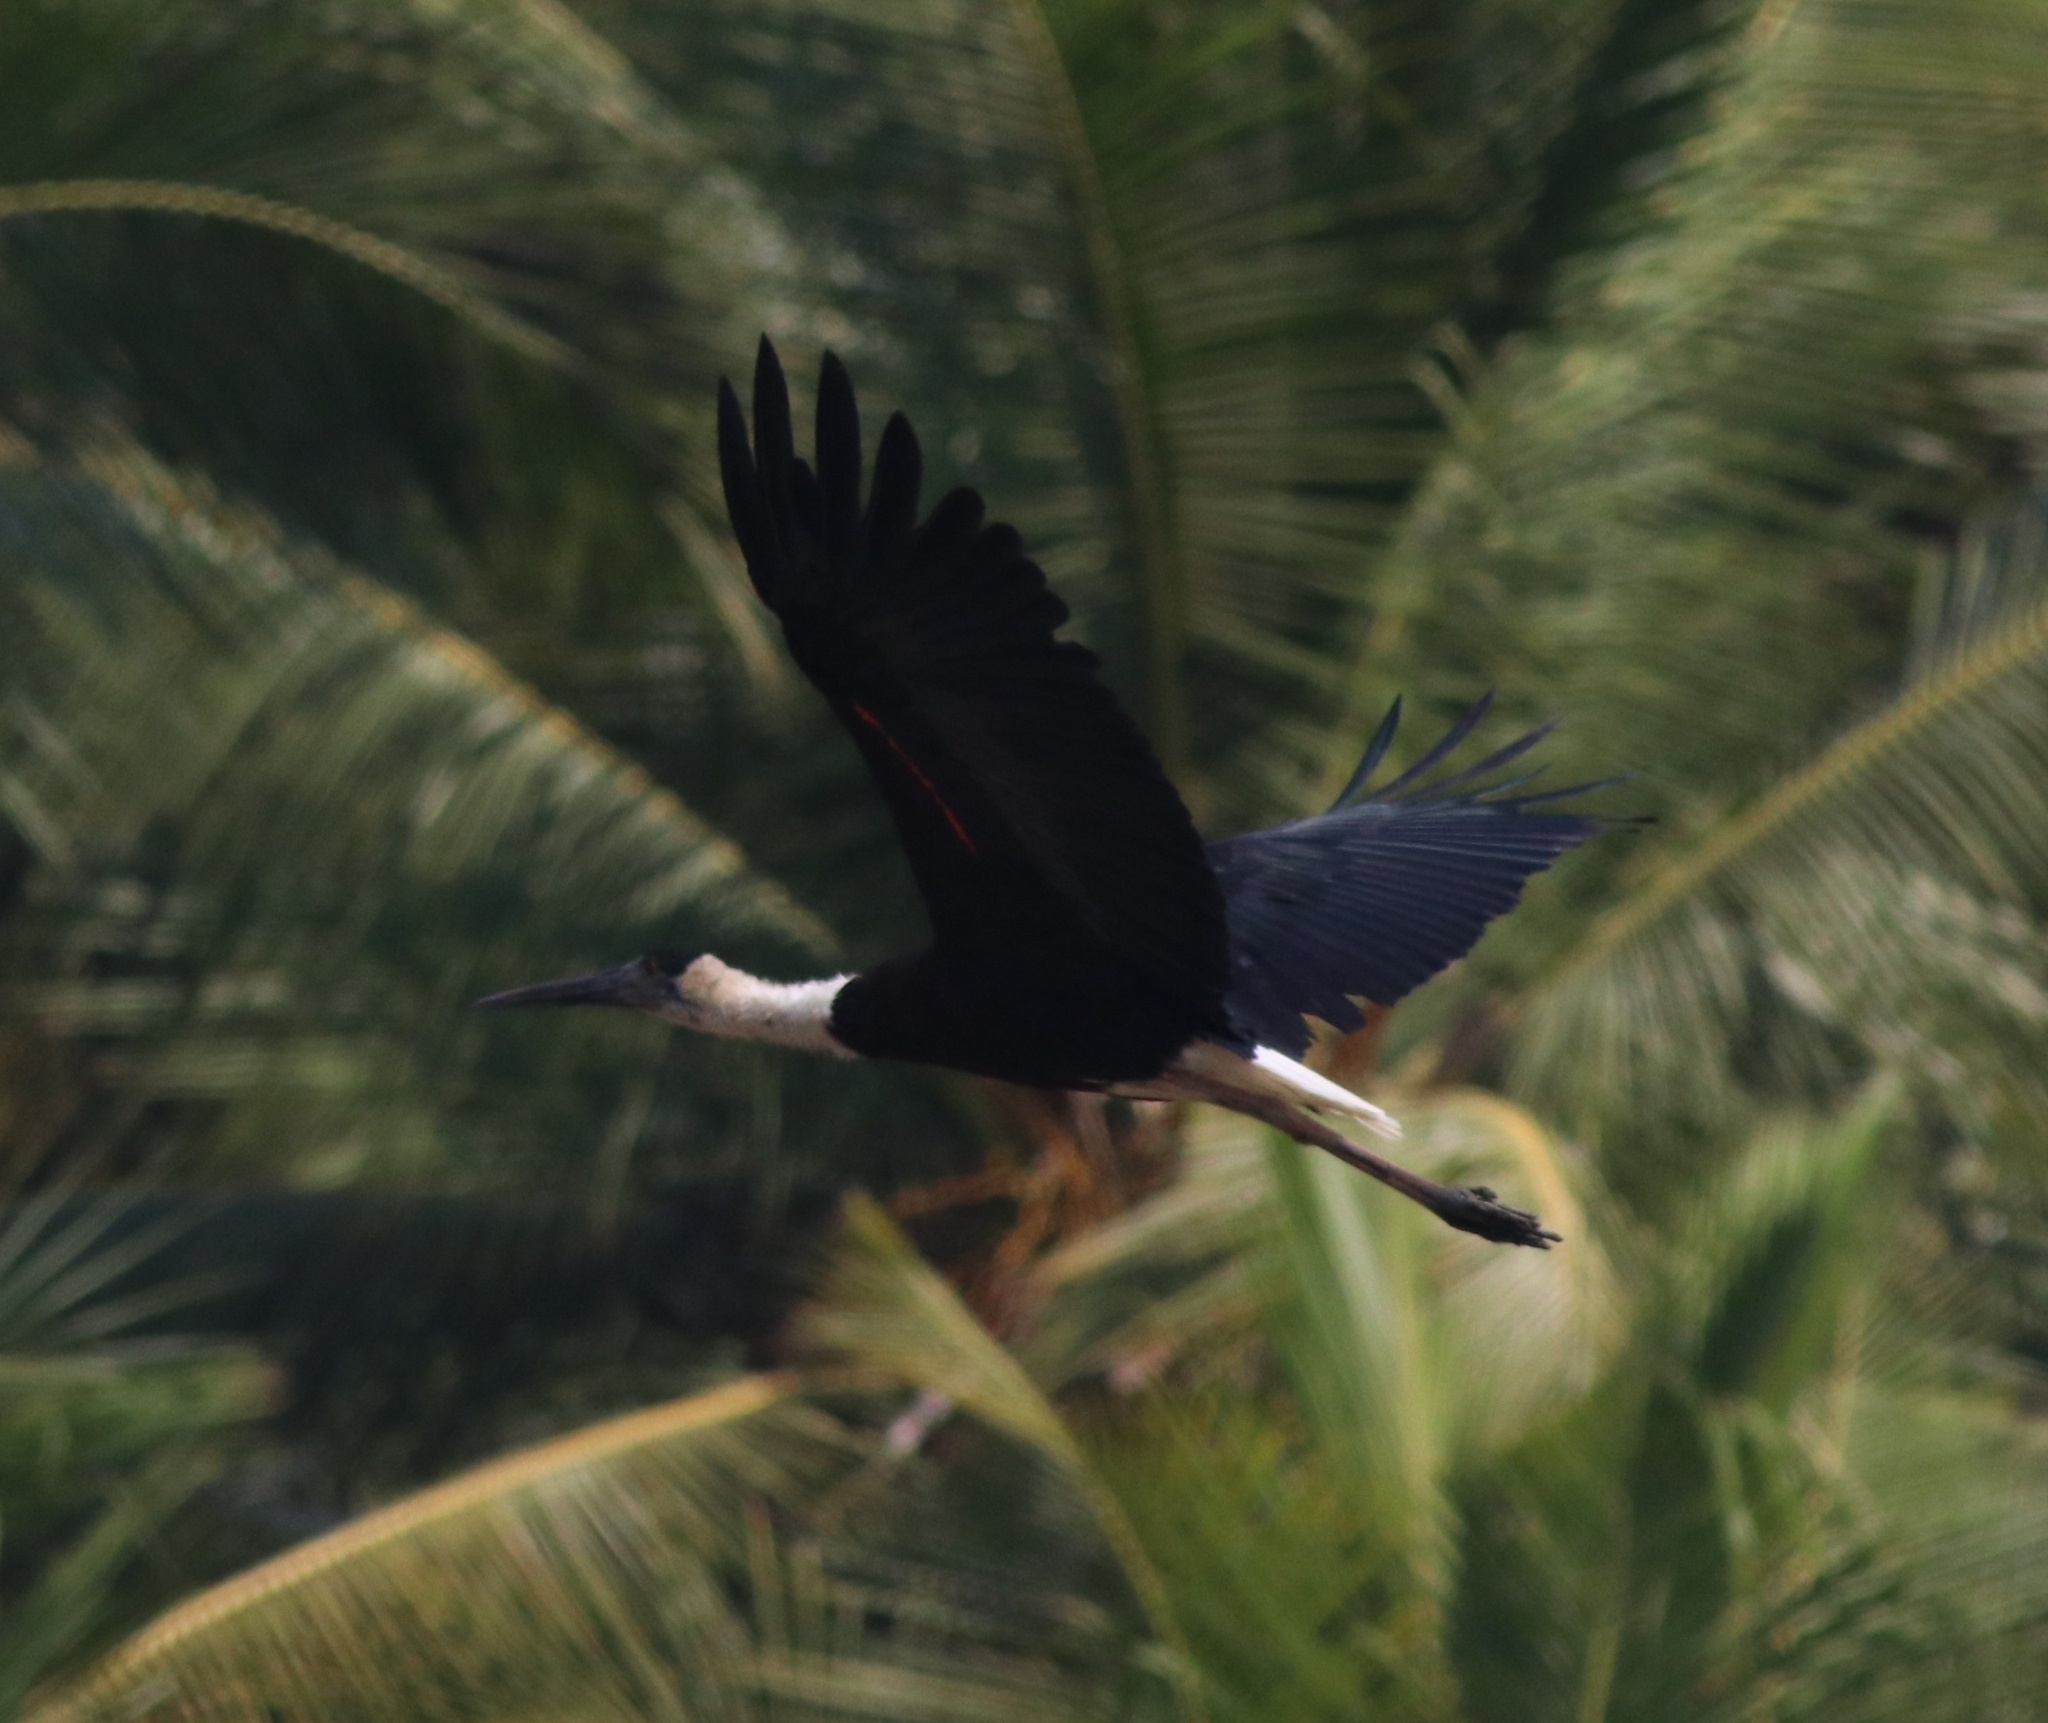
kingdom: Animalia
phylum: Chordata
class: Aves
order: Ciconiiformes
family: Ciconiidae
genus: Ciconia
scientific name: Ciconia episcopus
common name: Woolly-necked stork
